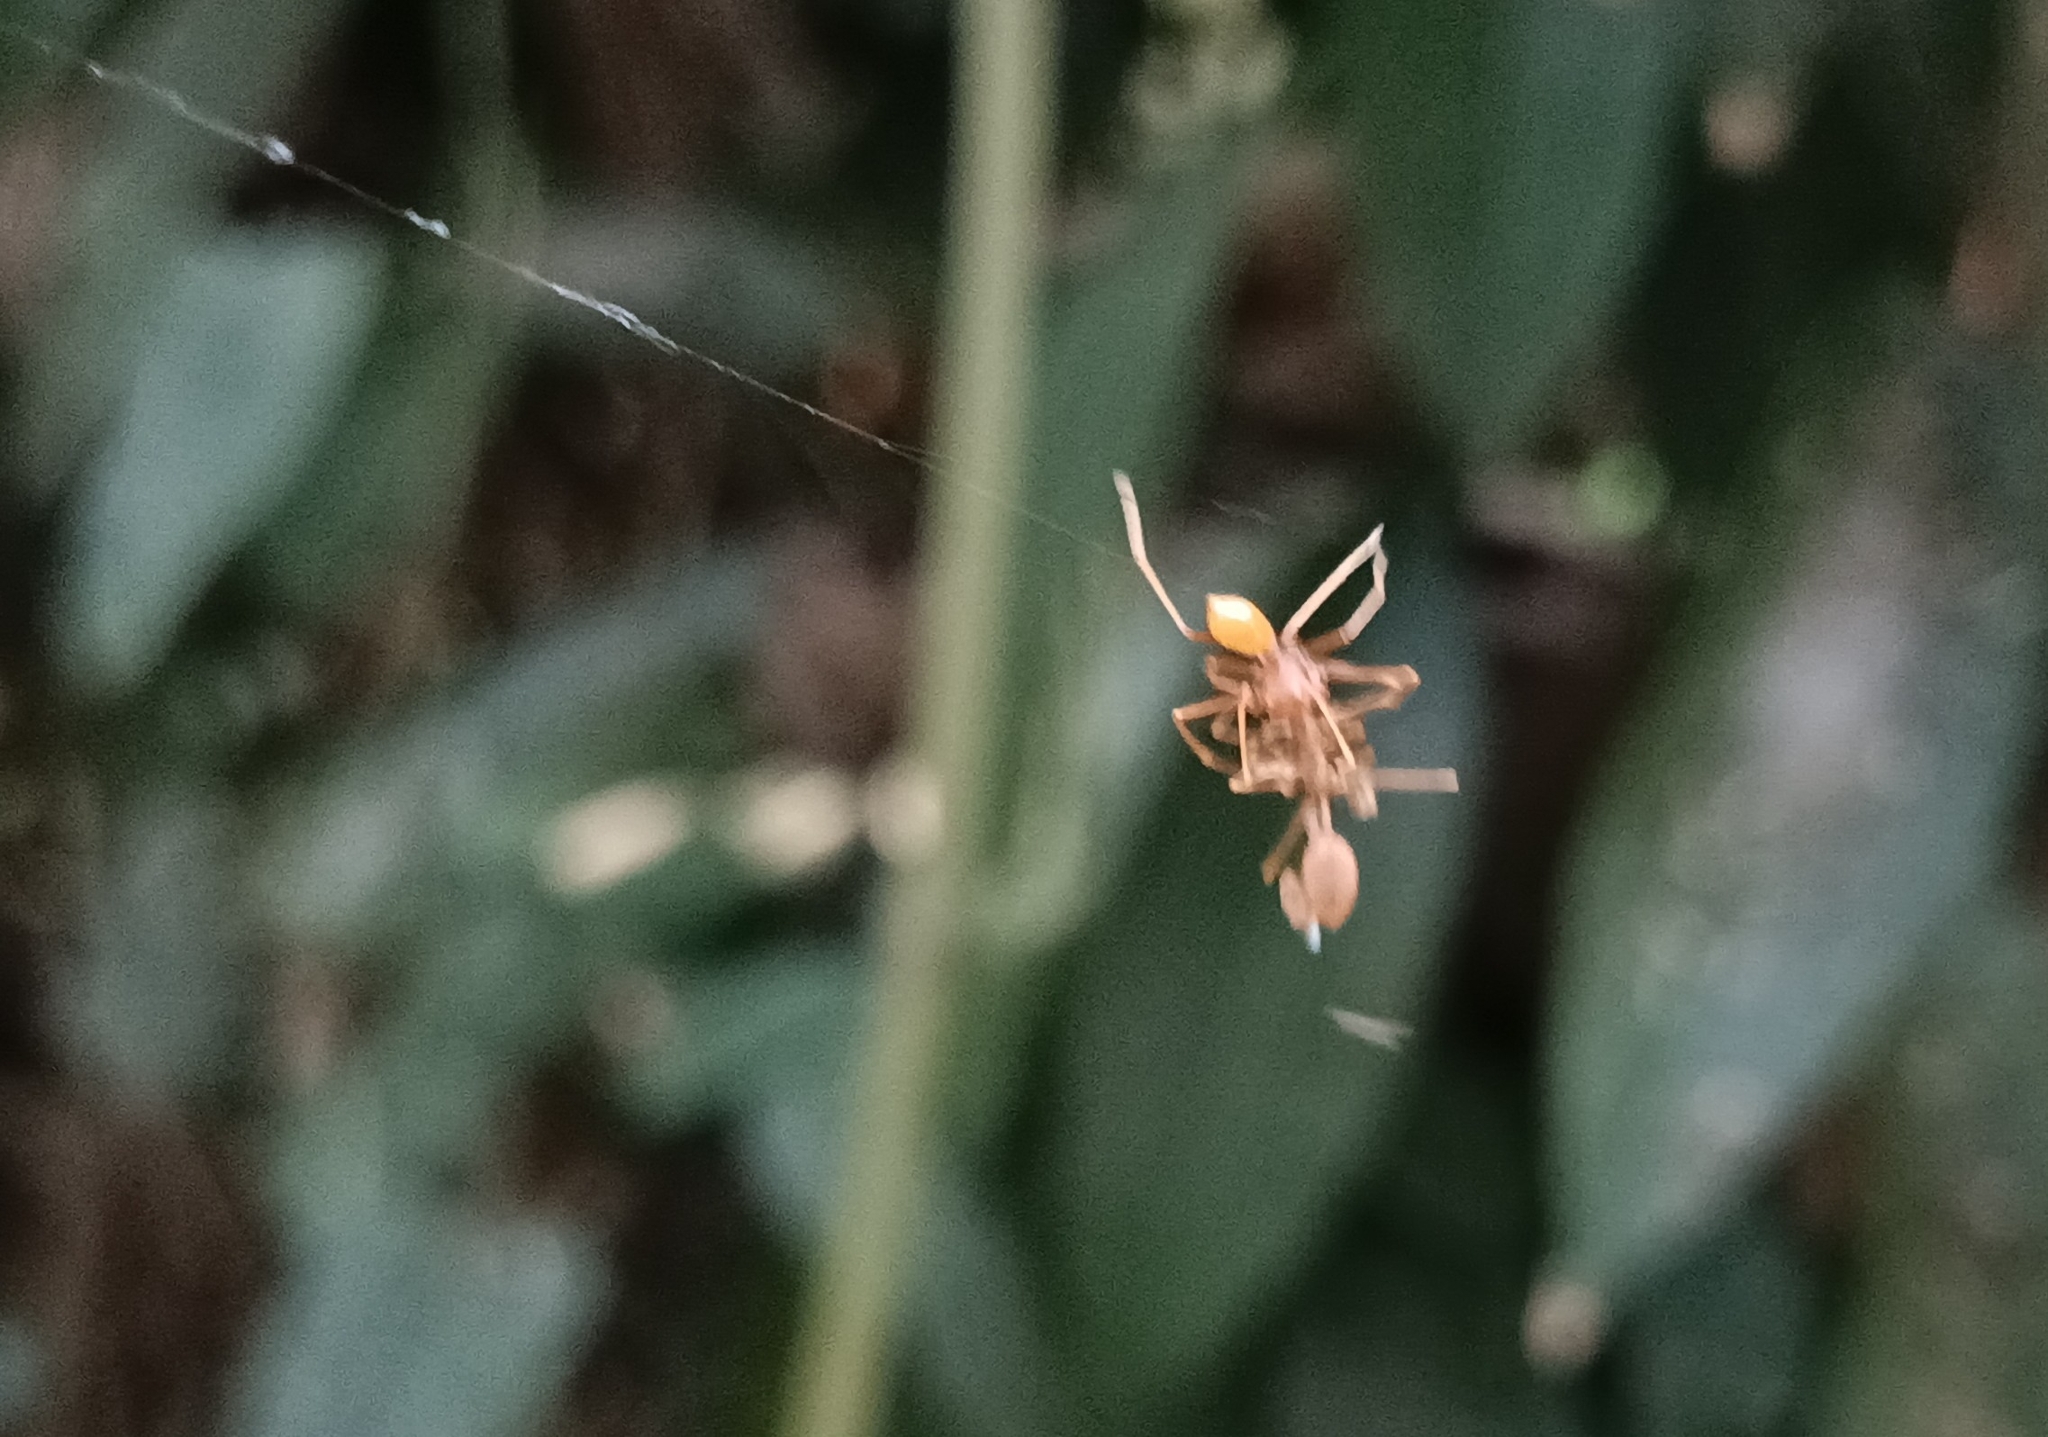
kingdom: Animalia
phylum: Arthropoda
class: Arachnida
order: Araneae
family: Thomisidae
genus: Amyciaea
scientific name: Amyciaea forticeps
